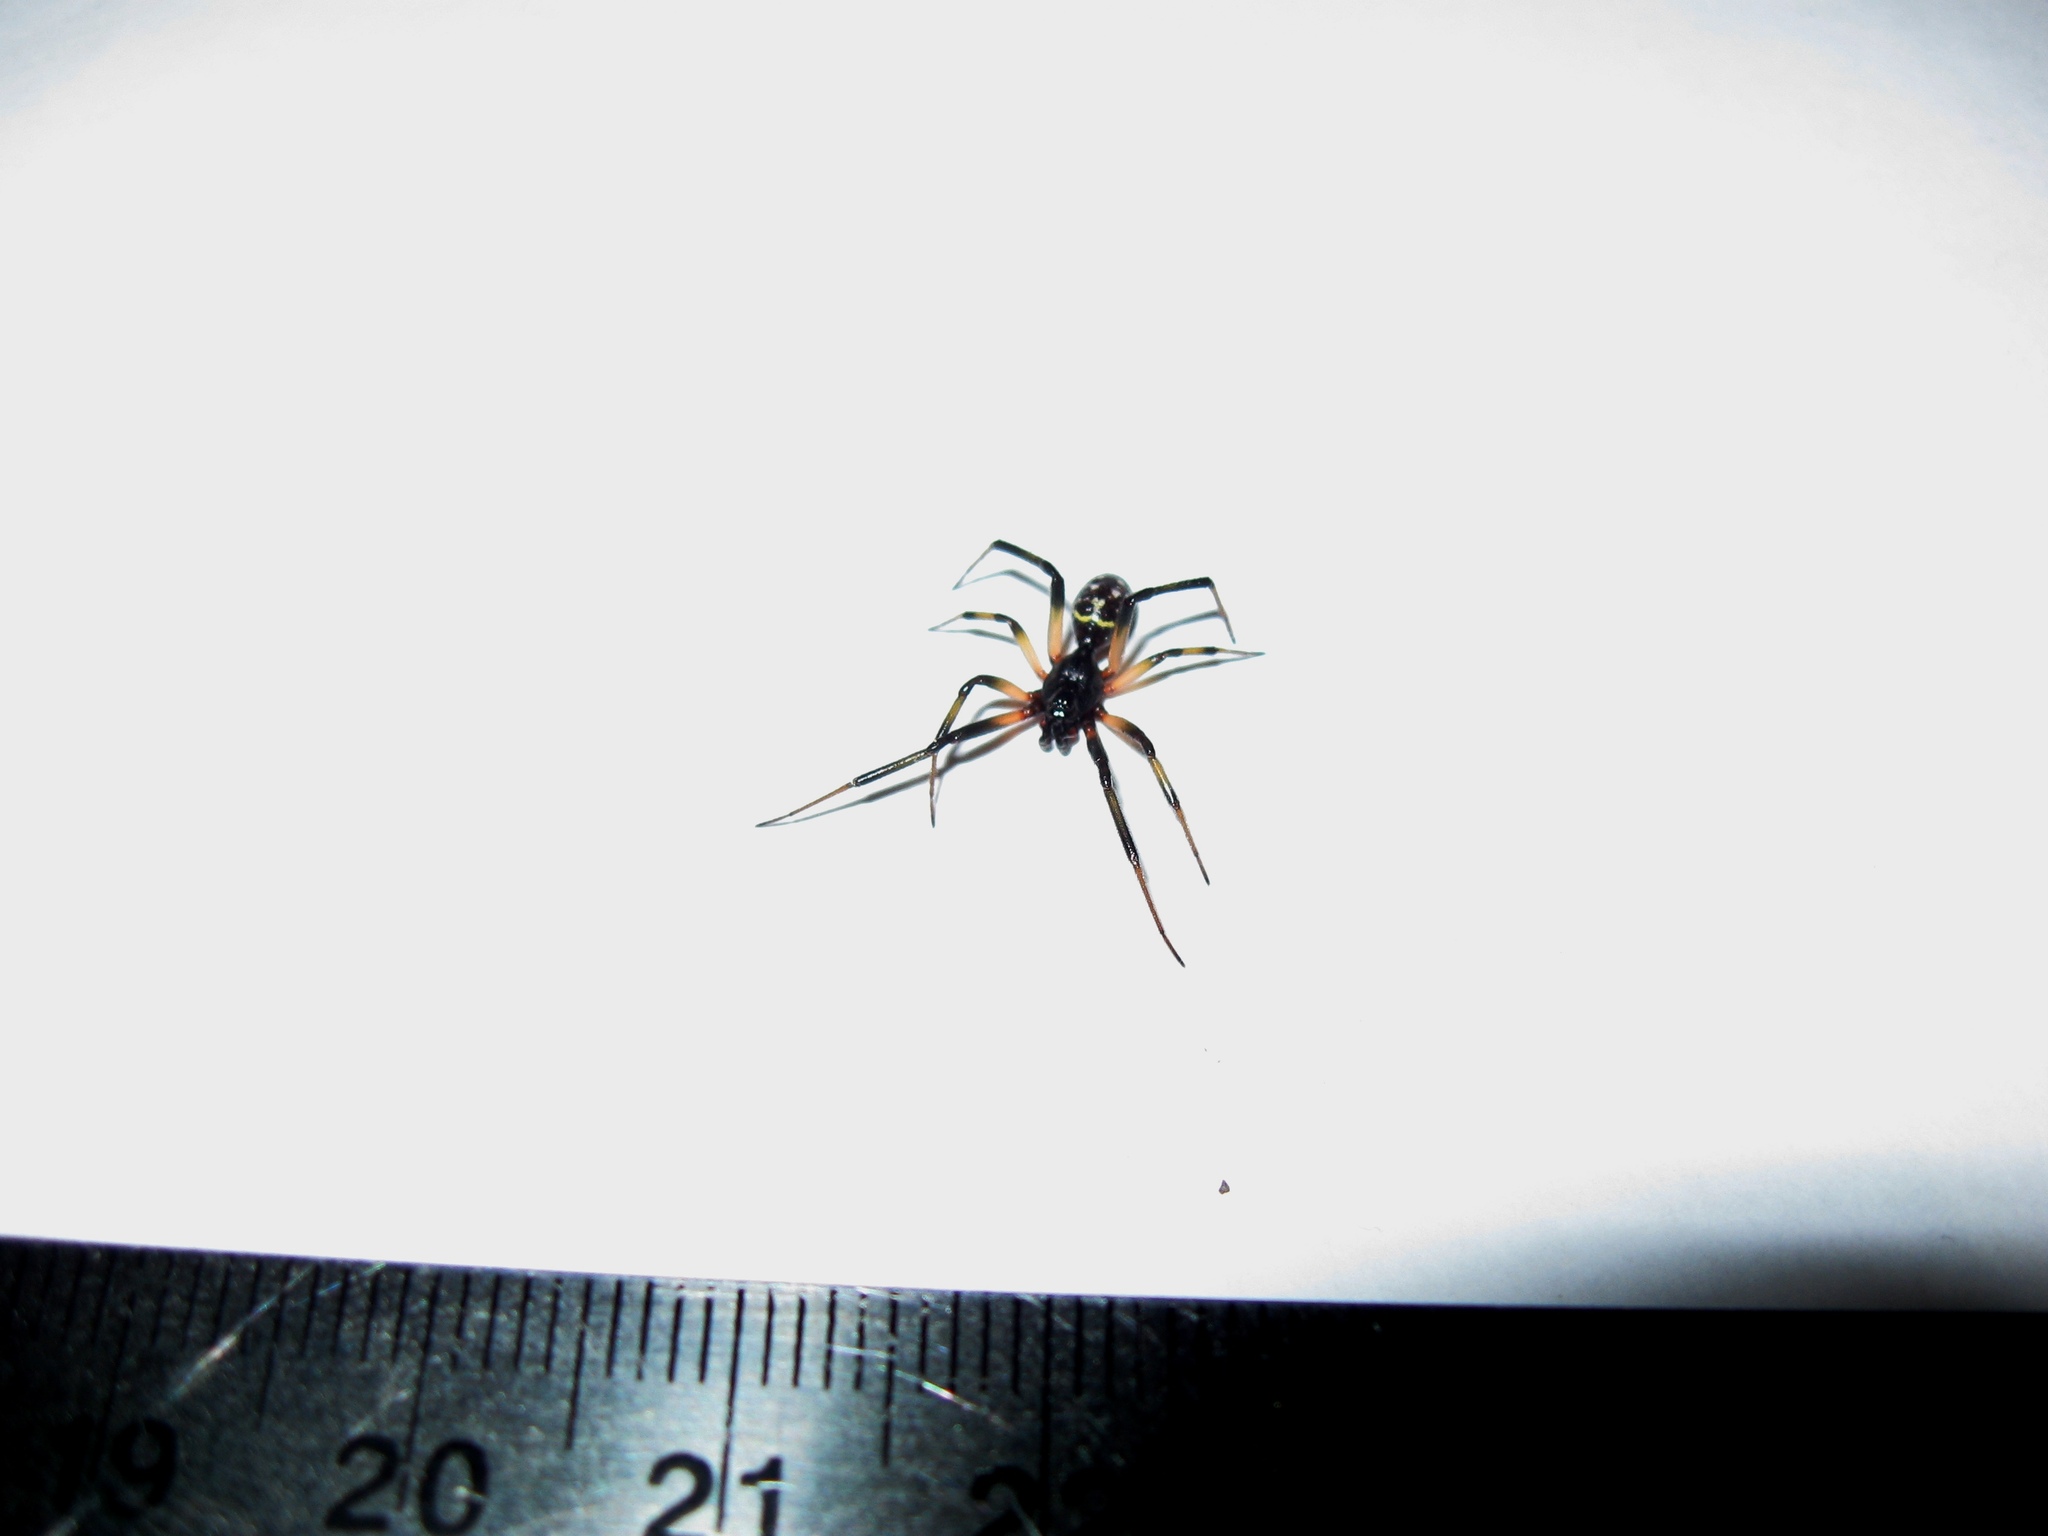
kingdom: Animalia
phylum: Arthropoda
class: Arachnida
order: Araneae
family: Theridiidae
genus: Steatoda
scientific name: Steatoda capensis
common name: Cobweb weaver
